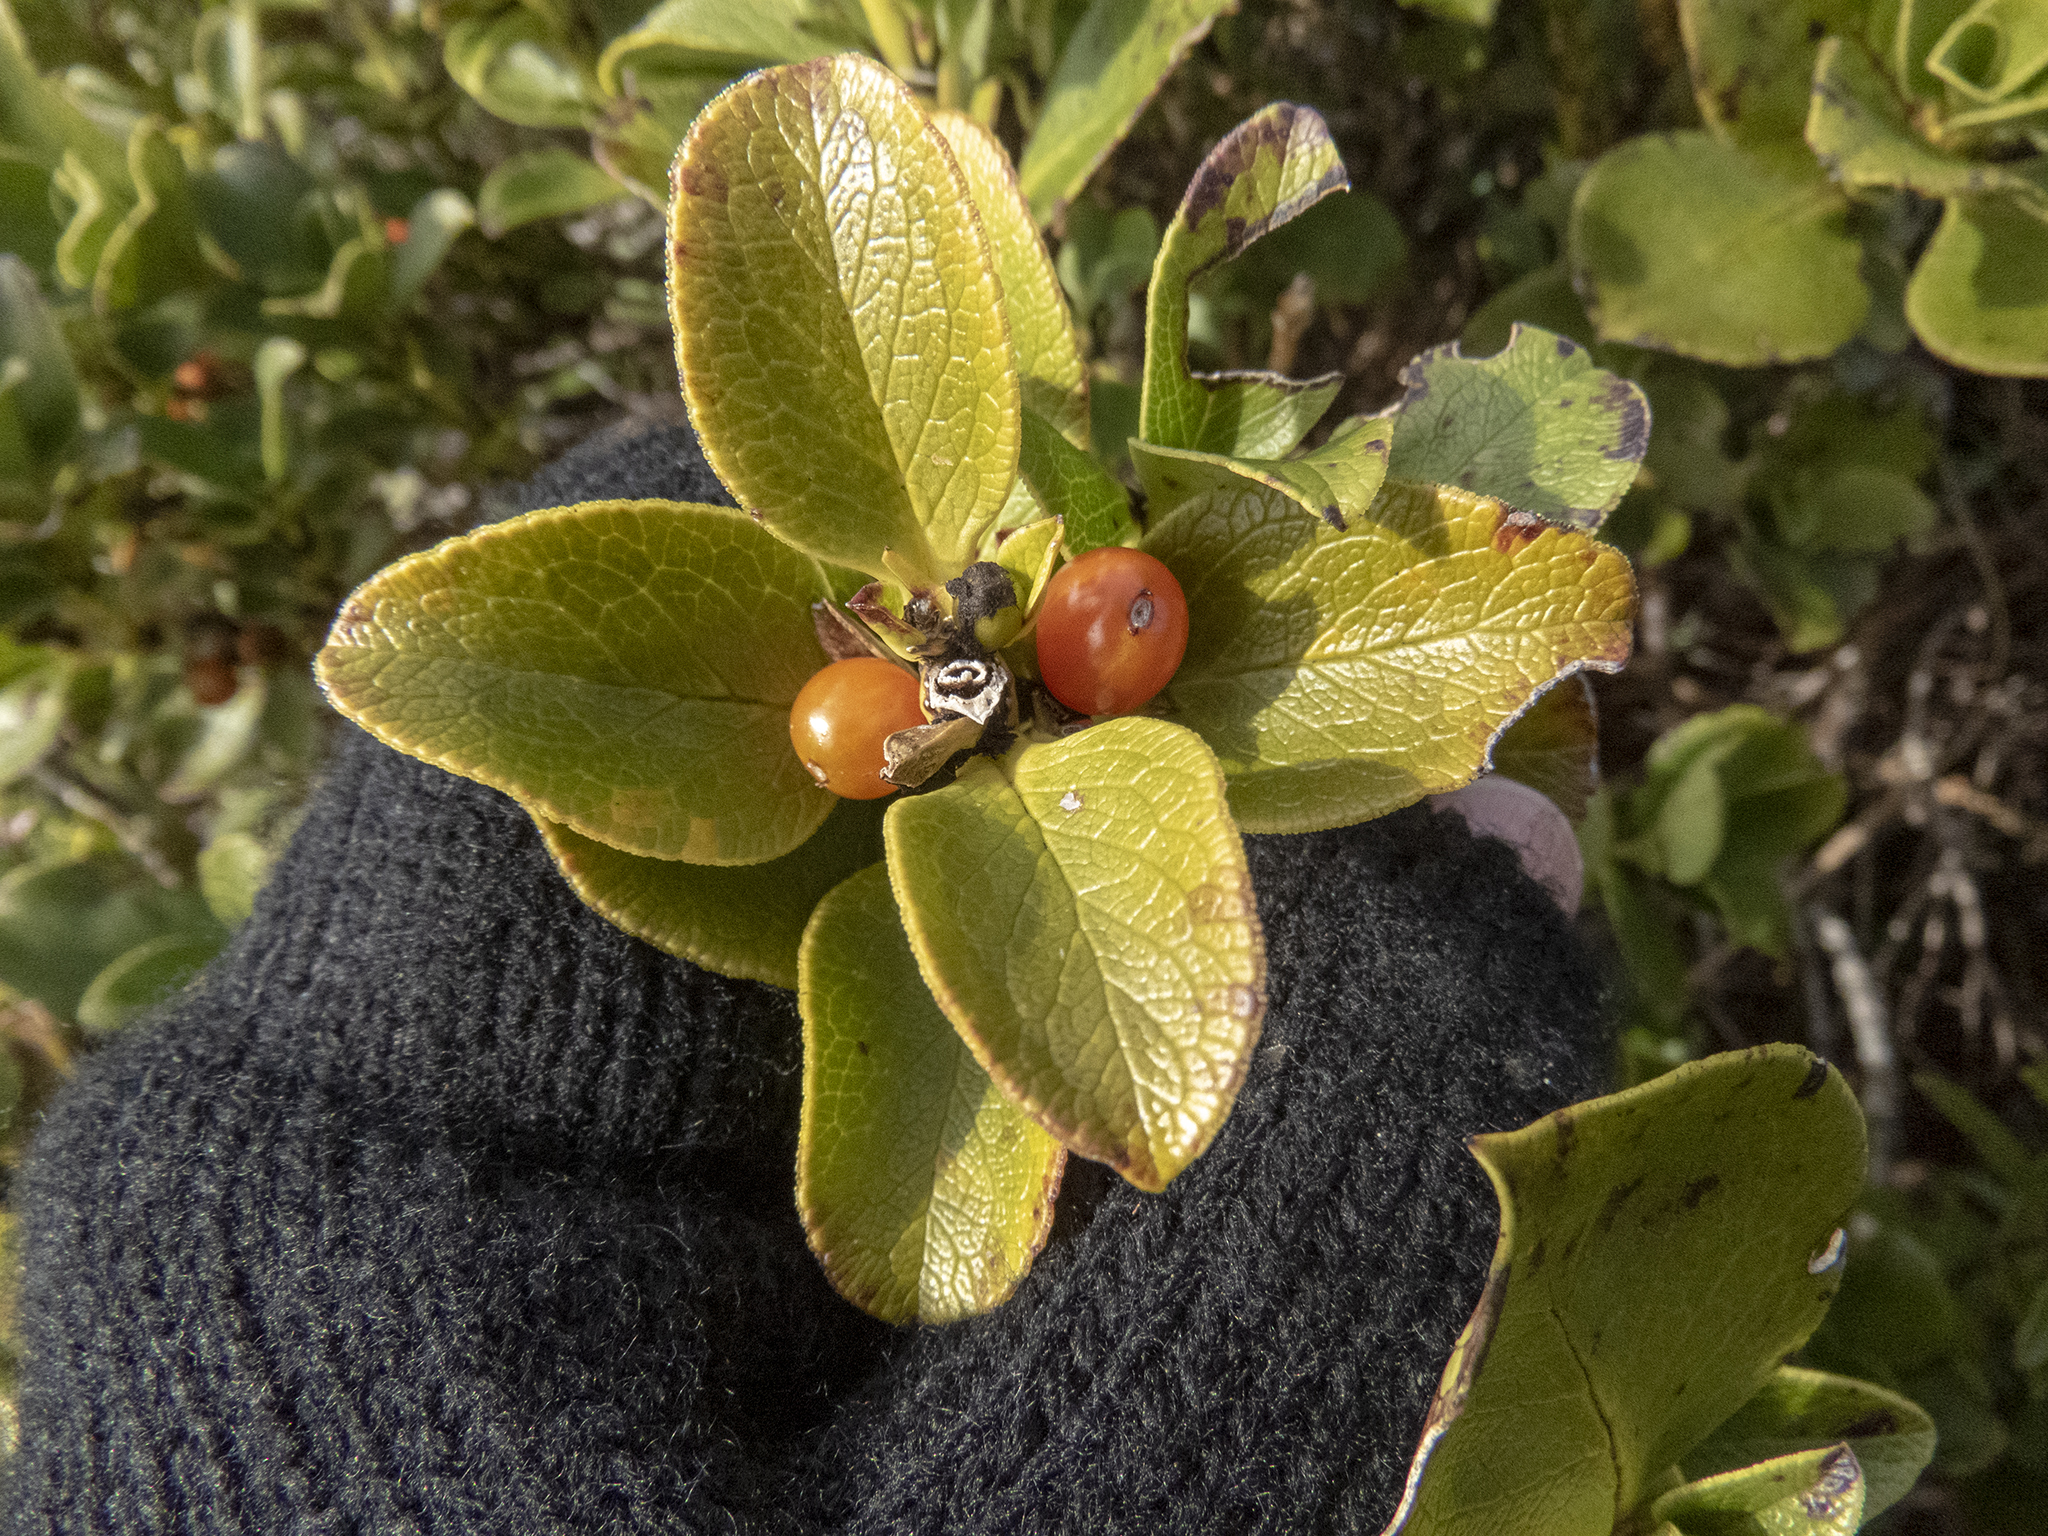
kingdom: Plantae
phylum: Tracheophyta
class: Magnoliopsida
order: Gentianales
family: Rubiaceae
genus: Coprosma
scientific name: Coprosma serrulata
